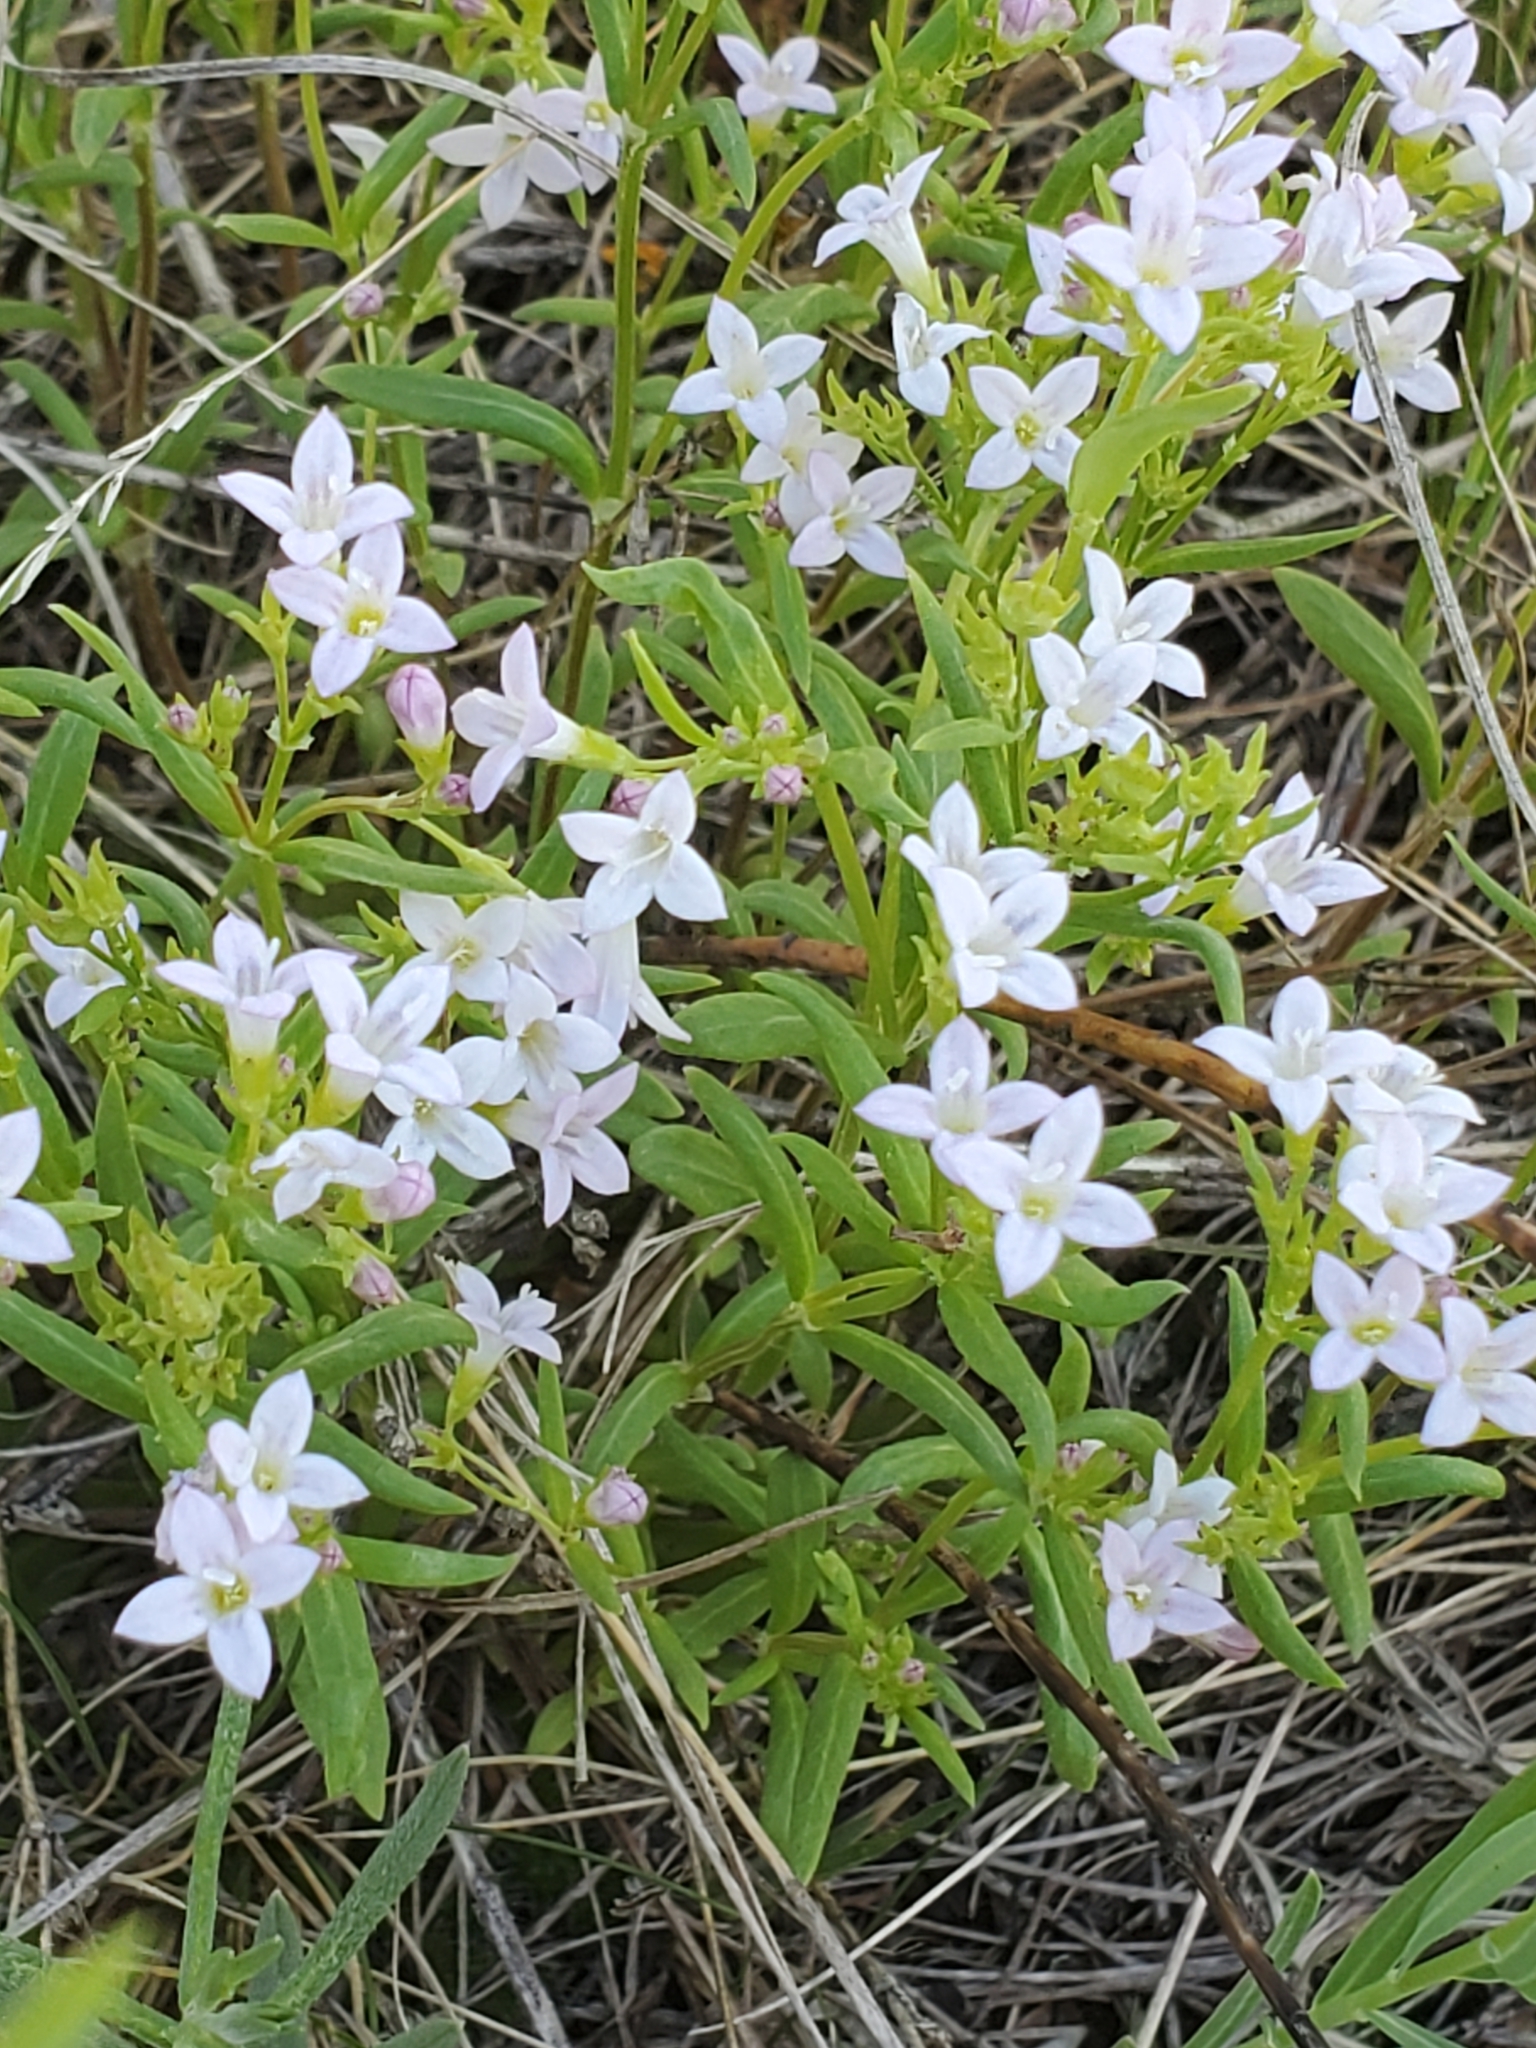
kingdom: Plantae
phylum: Tracheophyta
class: Magnoliopsida
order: Gentianales
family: Rubiaceae
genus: Houstonia
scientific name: Houstonia longifolia
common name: Long-leaved bluets
